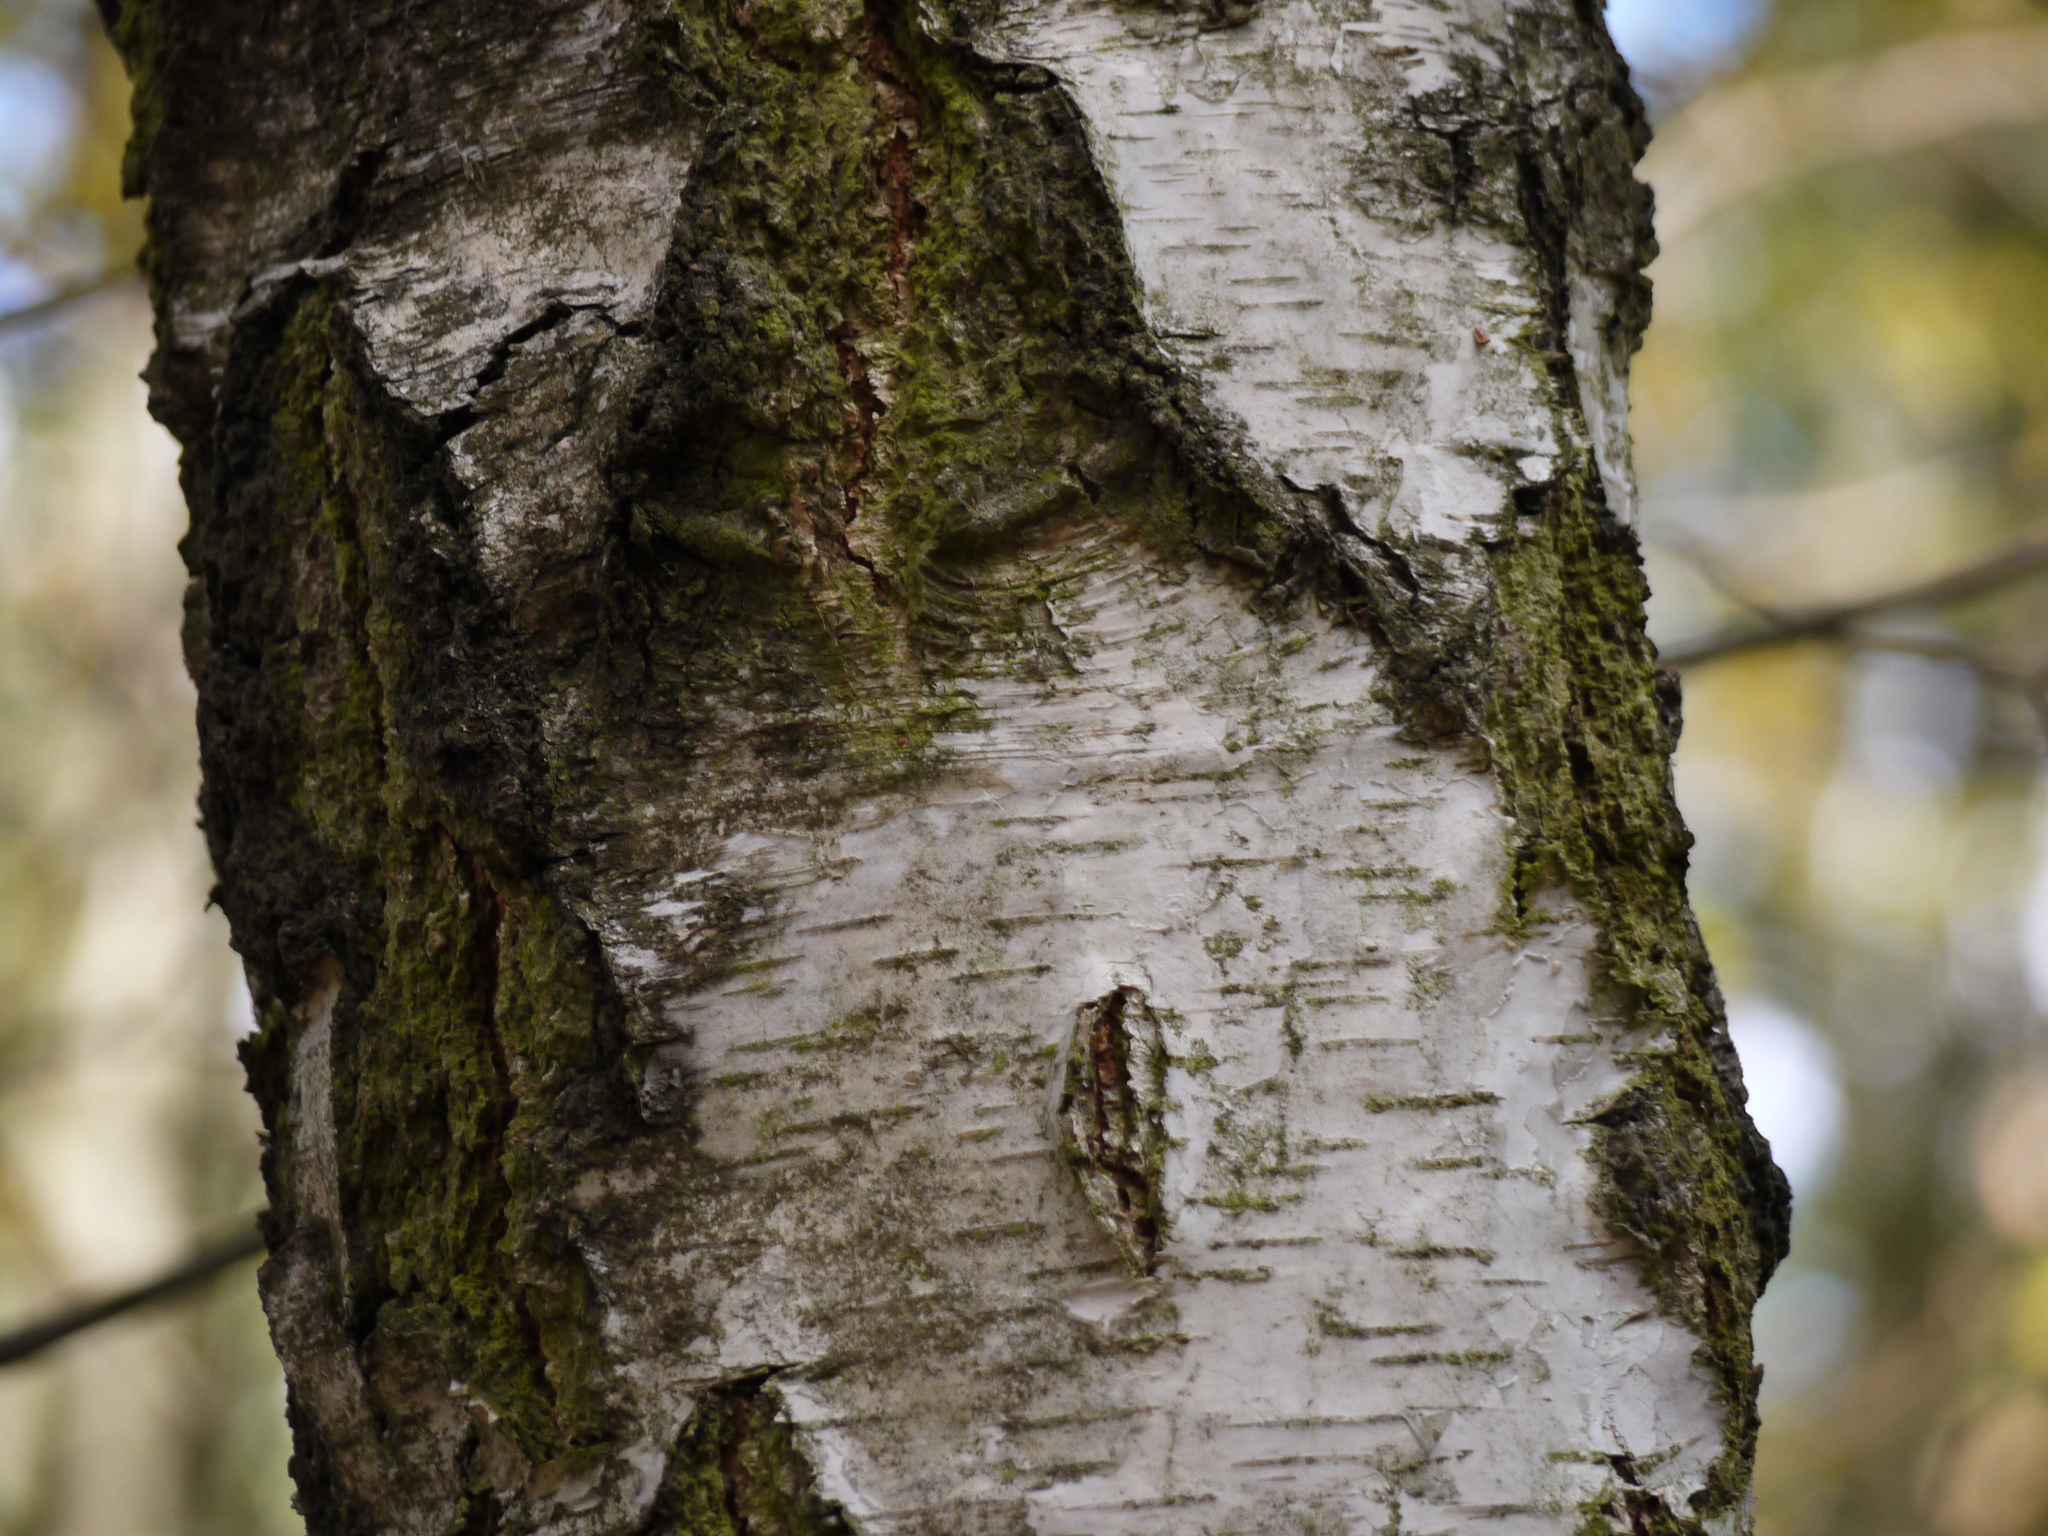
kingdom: Plantae
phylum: Tracheophyta
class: Magnoliopsida
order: Fagales
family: Betulaceae
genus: Betula
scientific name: Betula pendula
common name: Silver birch
